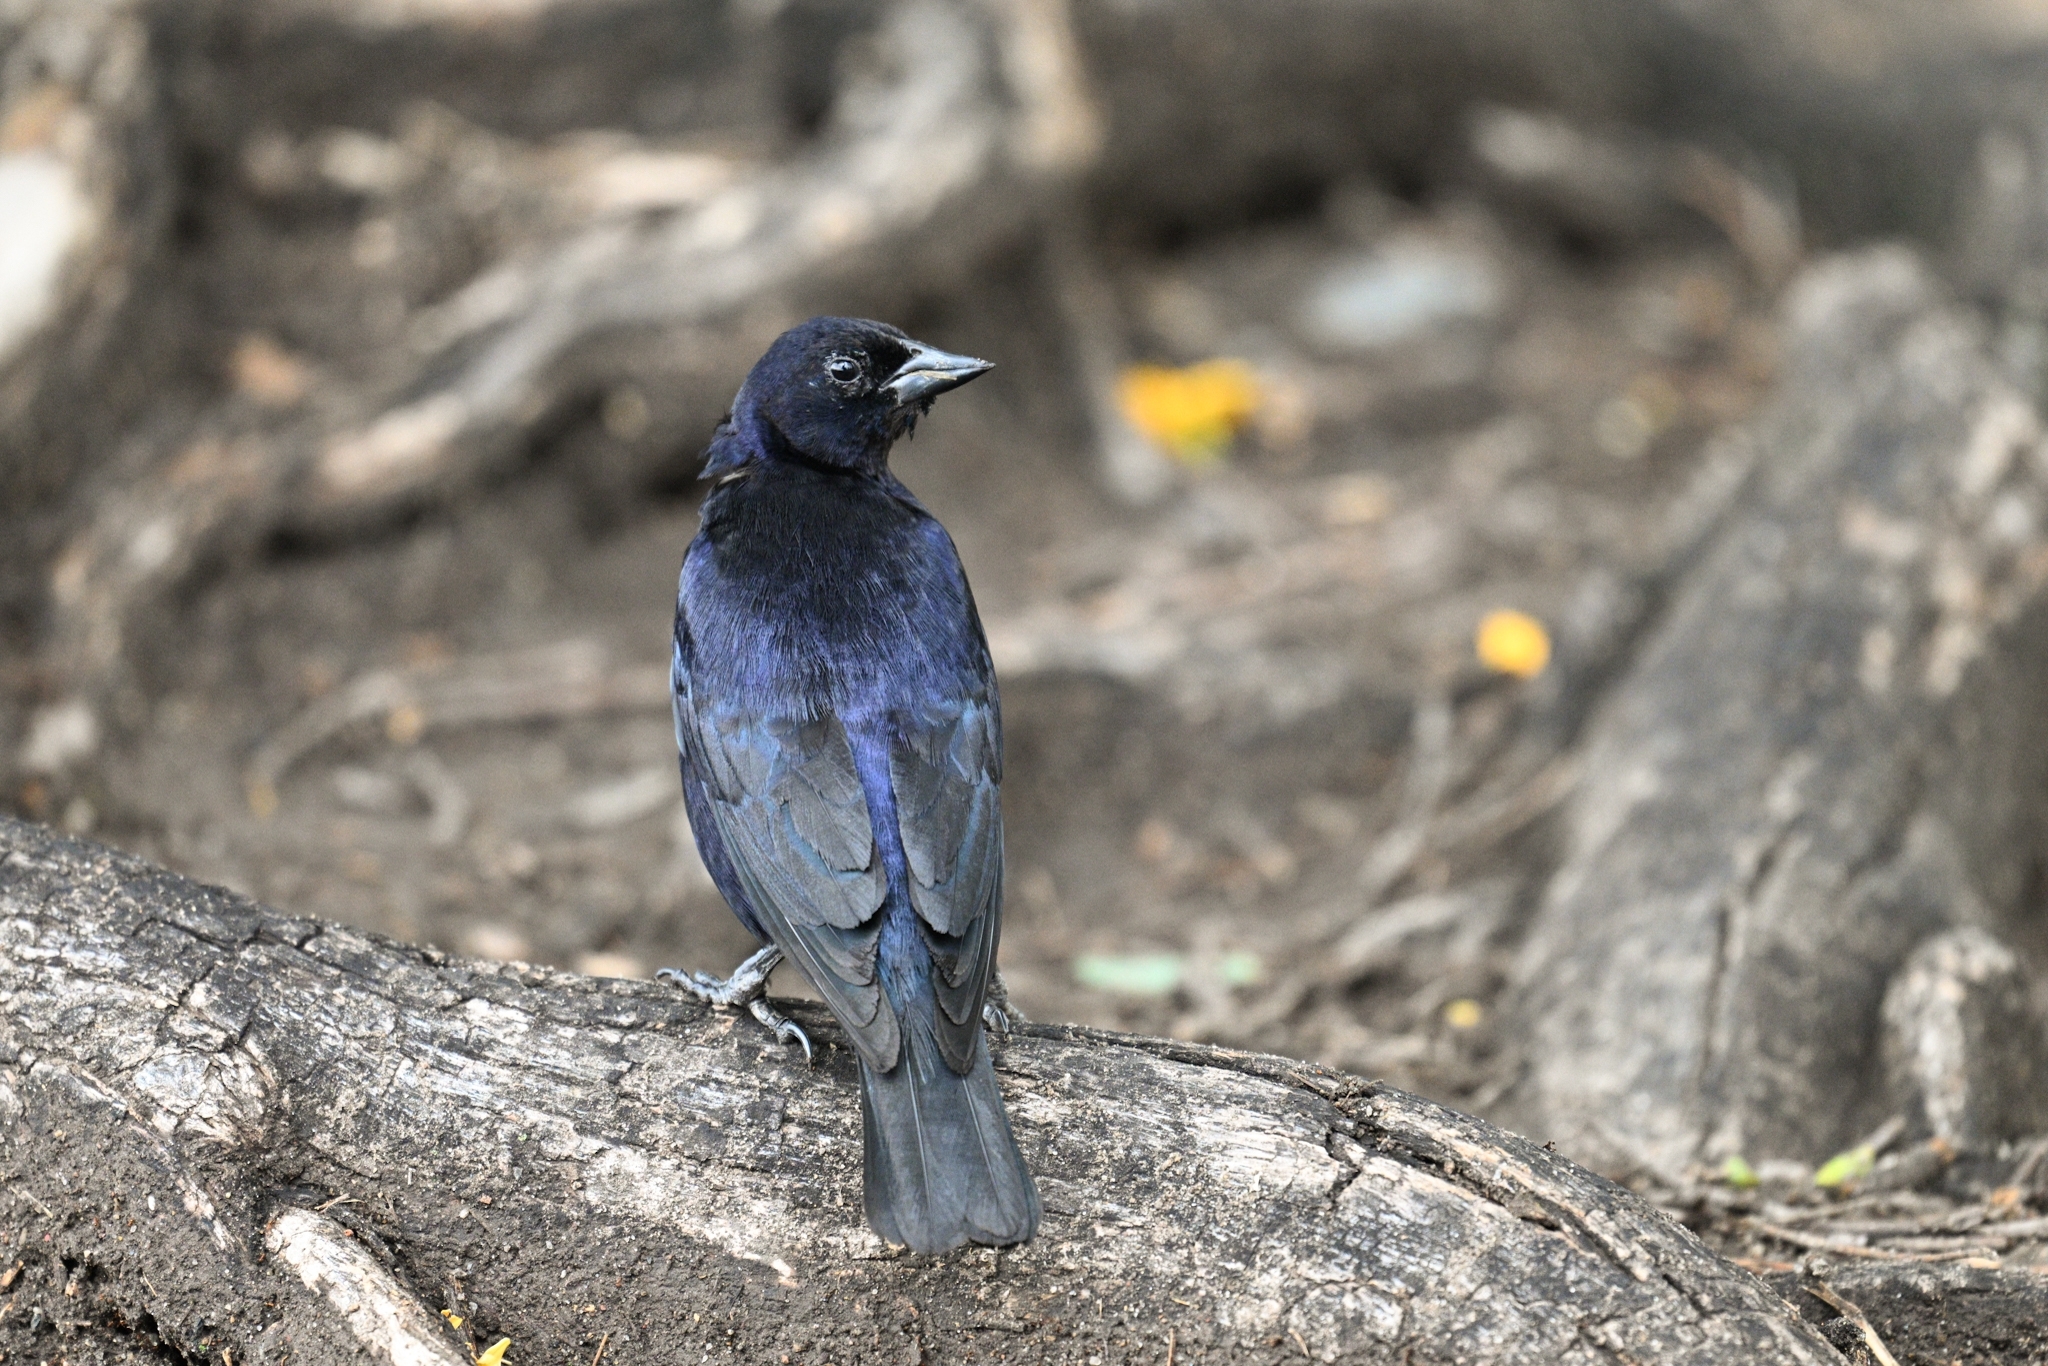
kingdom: Animalia
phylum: Chordata
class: Aves
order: Passeriformes
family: Icteridae
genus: Molothrus
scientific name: Molothrus bonariensis
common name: Shiny cowbird
